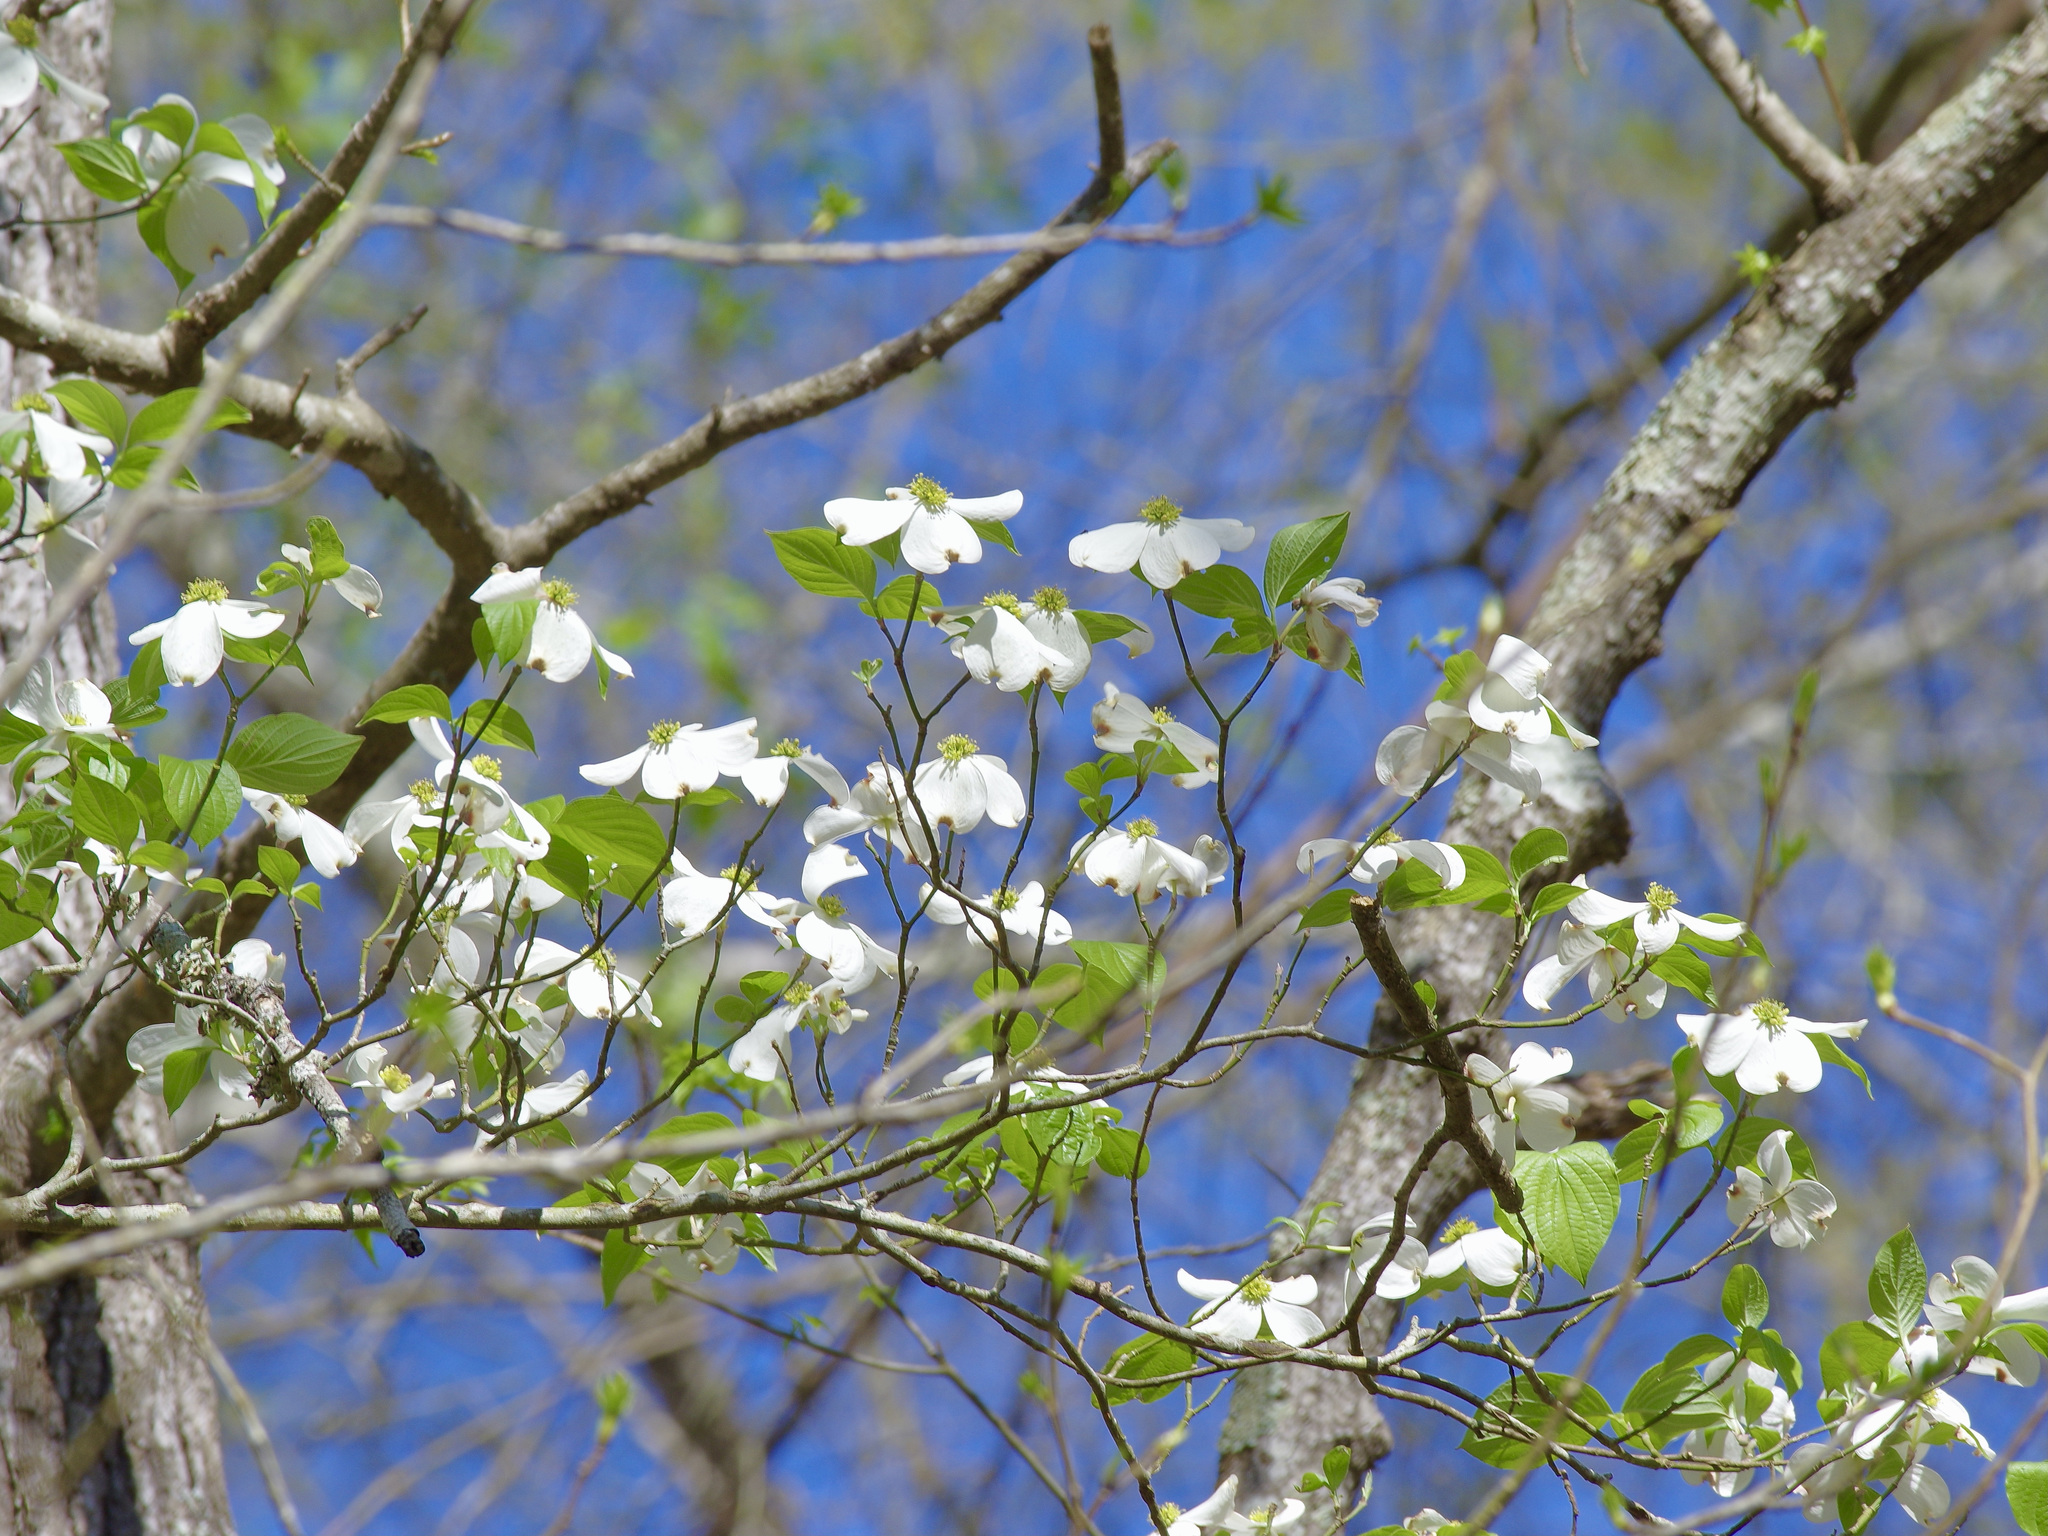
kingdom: Plantae
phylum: Tracheophyta
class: Magnoliopsida
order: Cornales
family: Cornaceae
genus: Cornus
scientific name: Cornus florida
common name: Flowering dogwood
